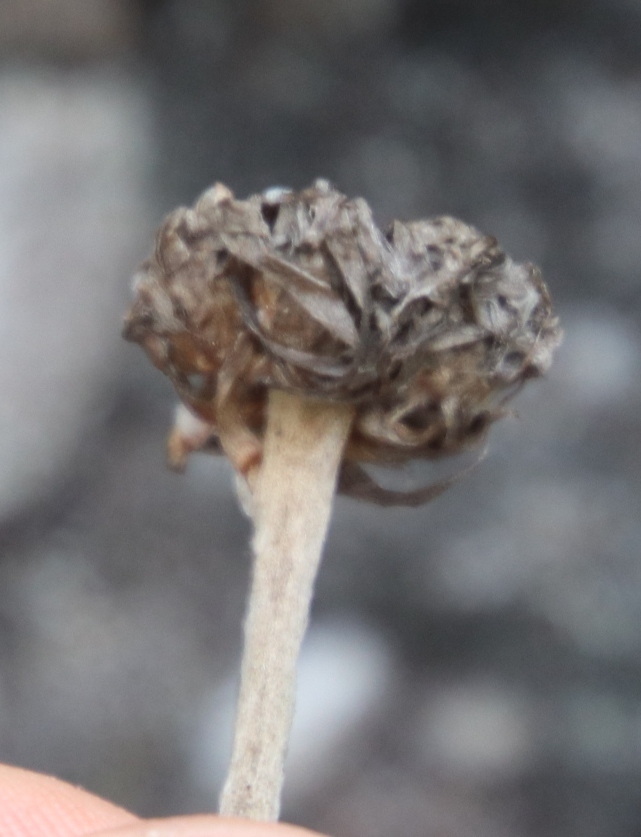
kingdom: Plantae
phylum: Tracheophyta
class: Magnoliopsida
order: Asterales
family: Asteraceae
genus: Syncarpha
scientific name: Syncarpha speciosissima
